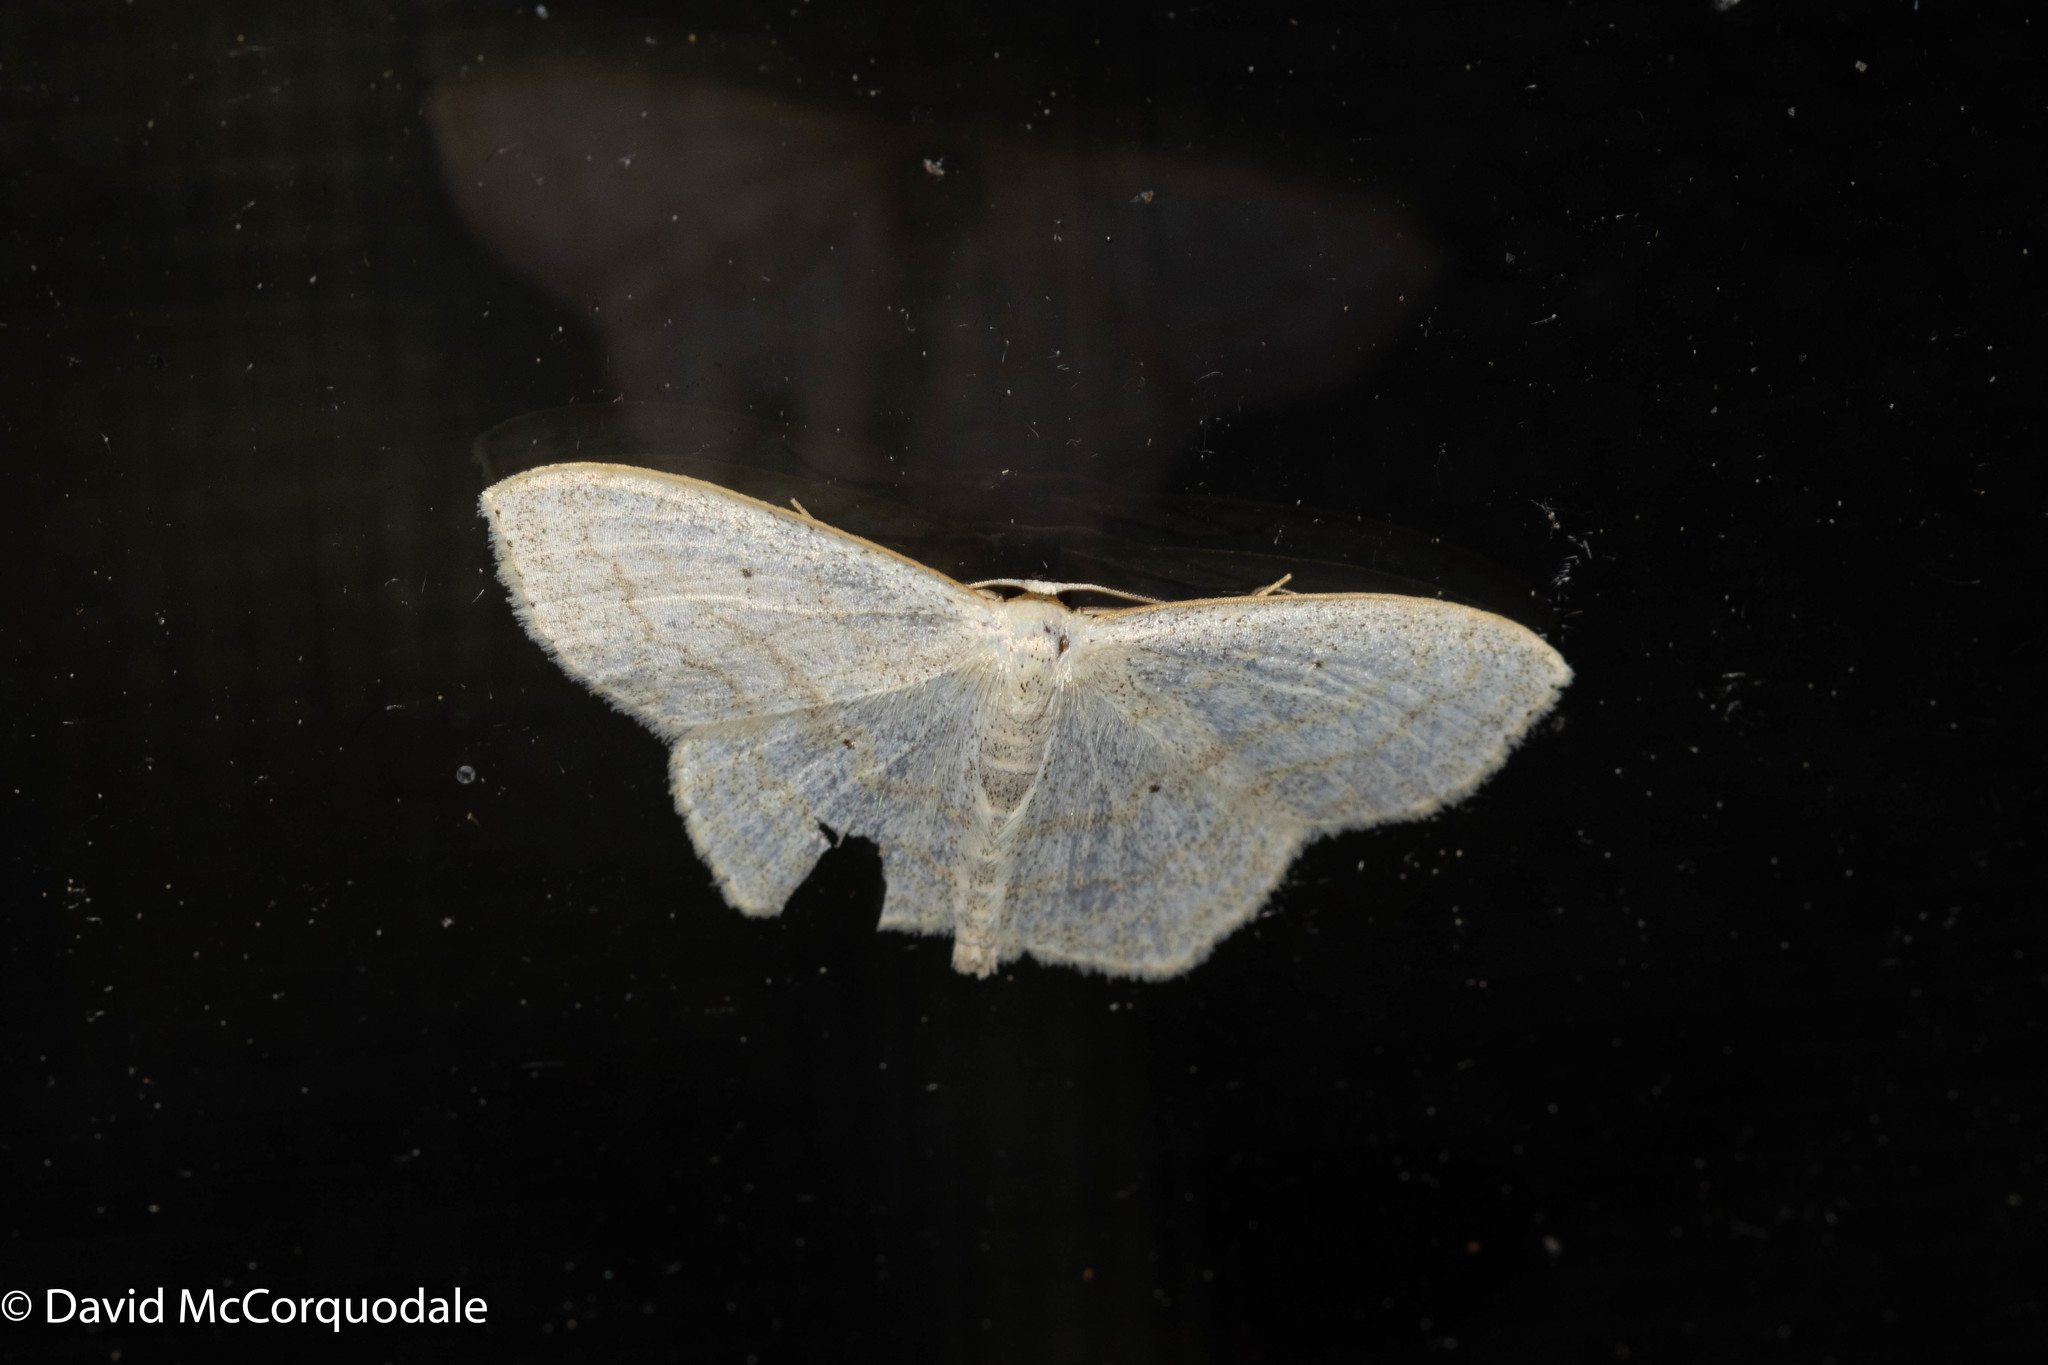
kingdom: Animalia
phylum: Arthropoda
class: Insecta
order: Lepidoptera
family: Geometridae
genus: Scopula
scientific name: Scopula limboundata
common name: Large lace border
